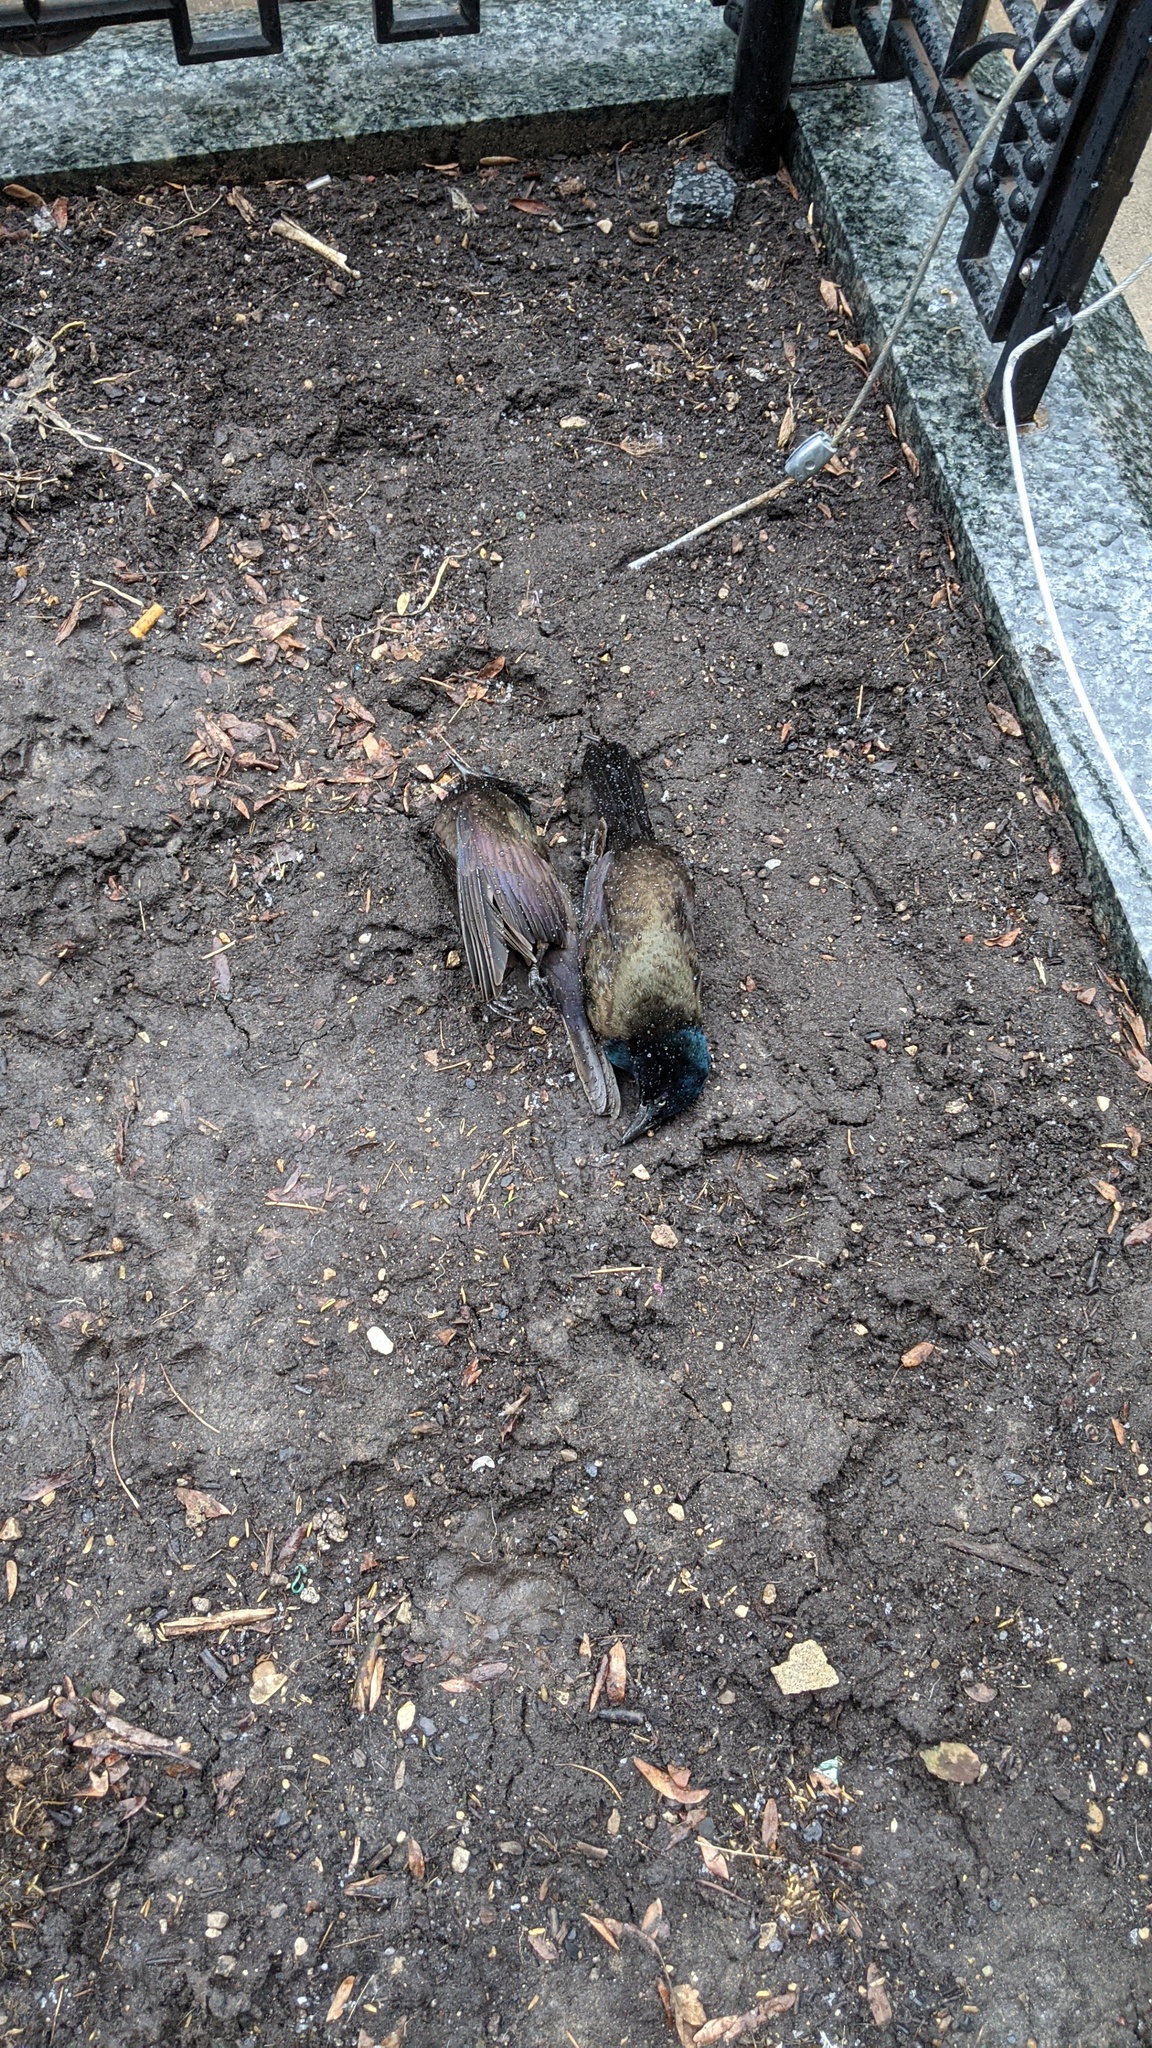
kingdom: Animalia
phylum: Chordata
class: Aves
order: Passeriformes
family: Icteridae
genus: Quiscalus
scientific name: Quiscalus quiscula
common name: Common grackle
